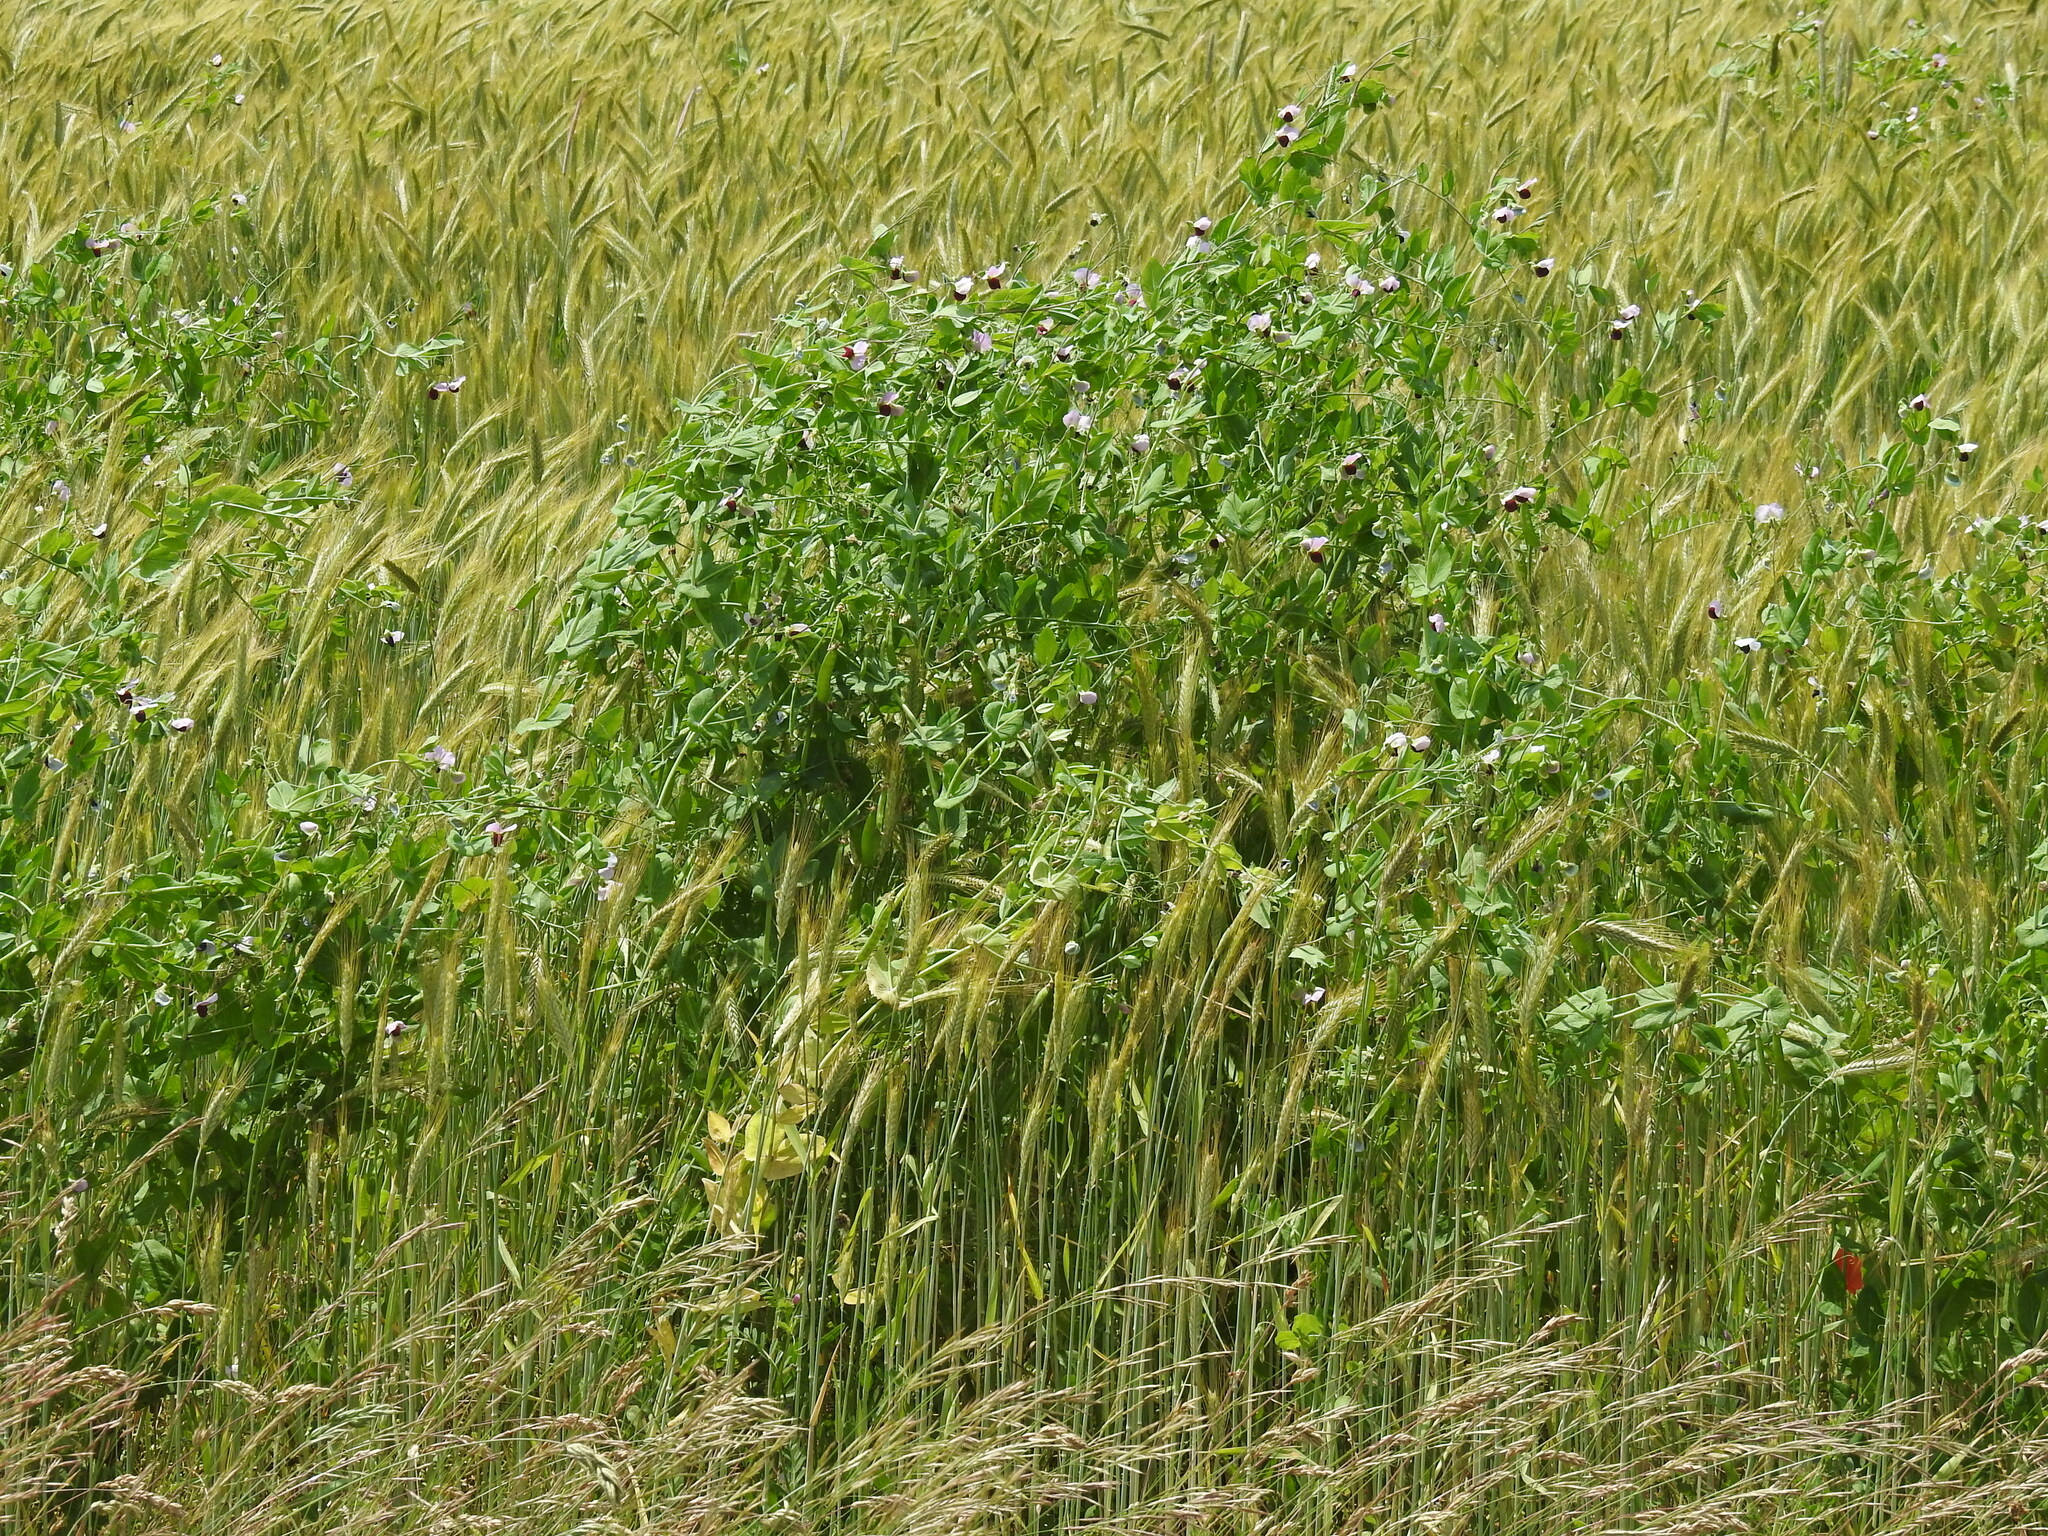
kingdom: Plantae
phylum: Tracheophyta
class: Magnoliopsida
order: Fabales
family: Fabaceae
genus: Lathyrus
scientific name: Lathyrus oleraceus
